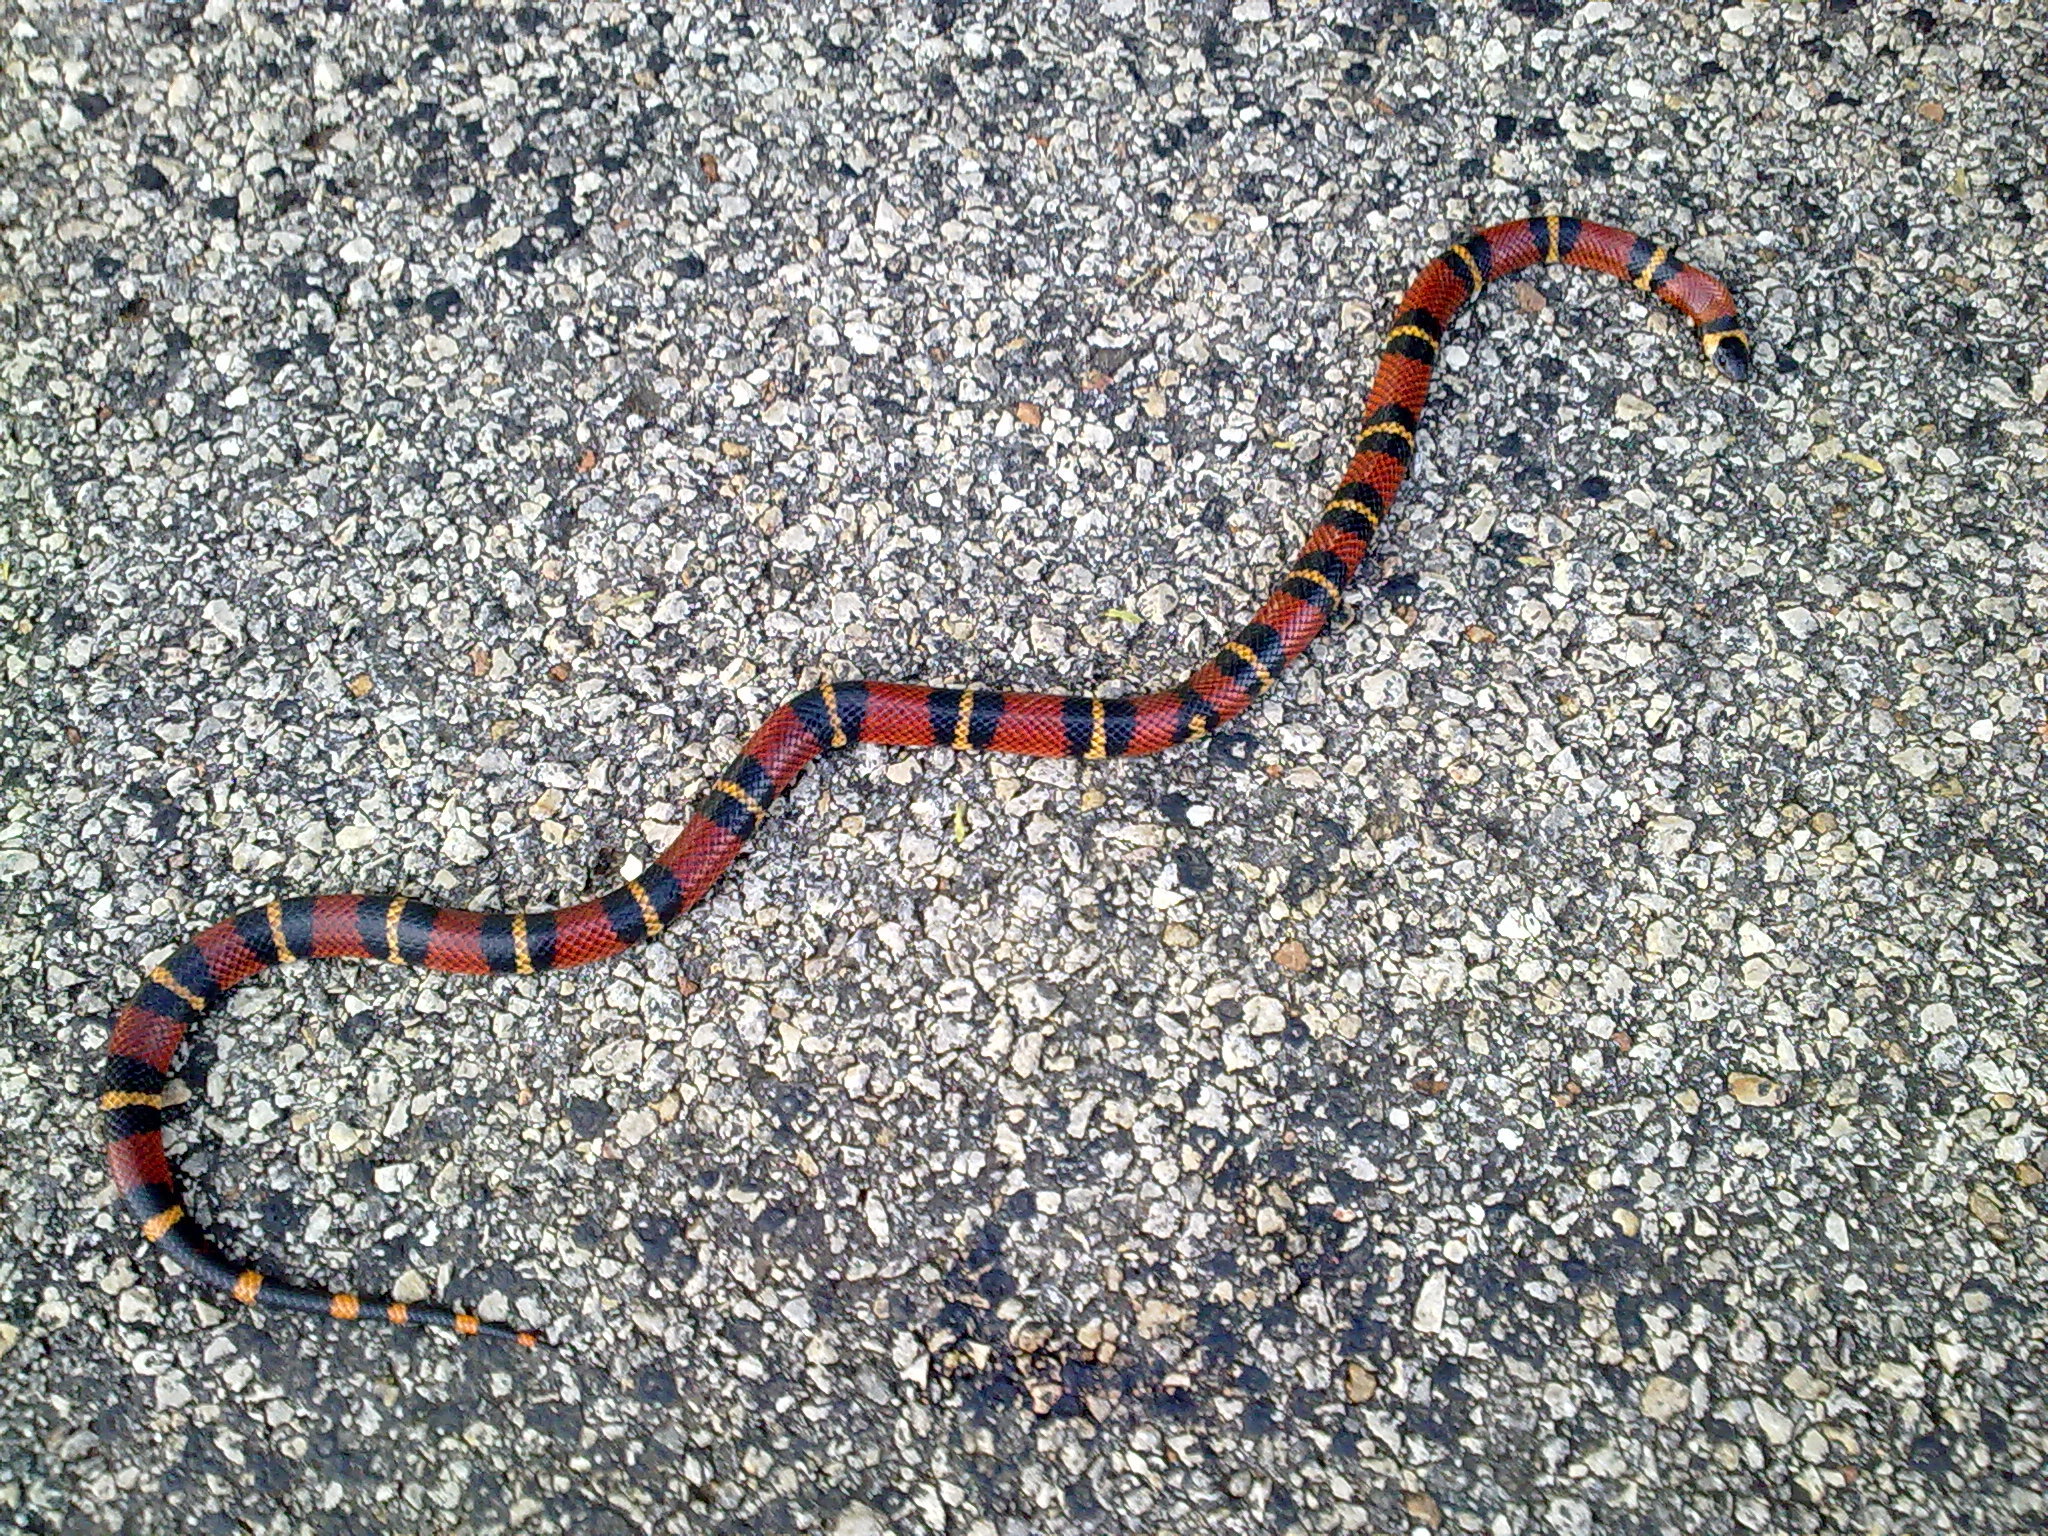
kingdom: Animalia
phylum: Chordata
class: Squamata
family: Colubridae
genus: Lampropeltis
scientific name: Lampropeltis abnorma
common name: Honduran milk snake
